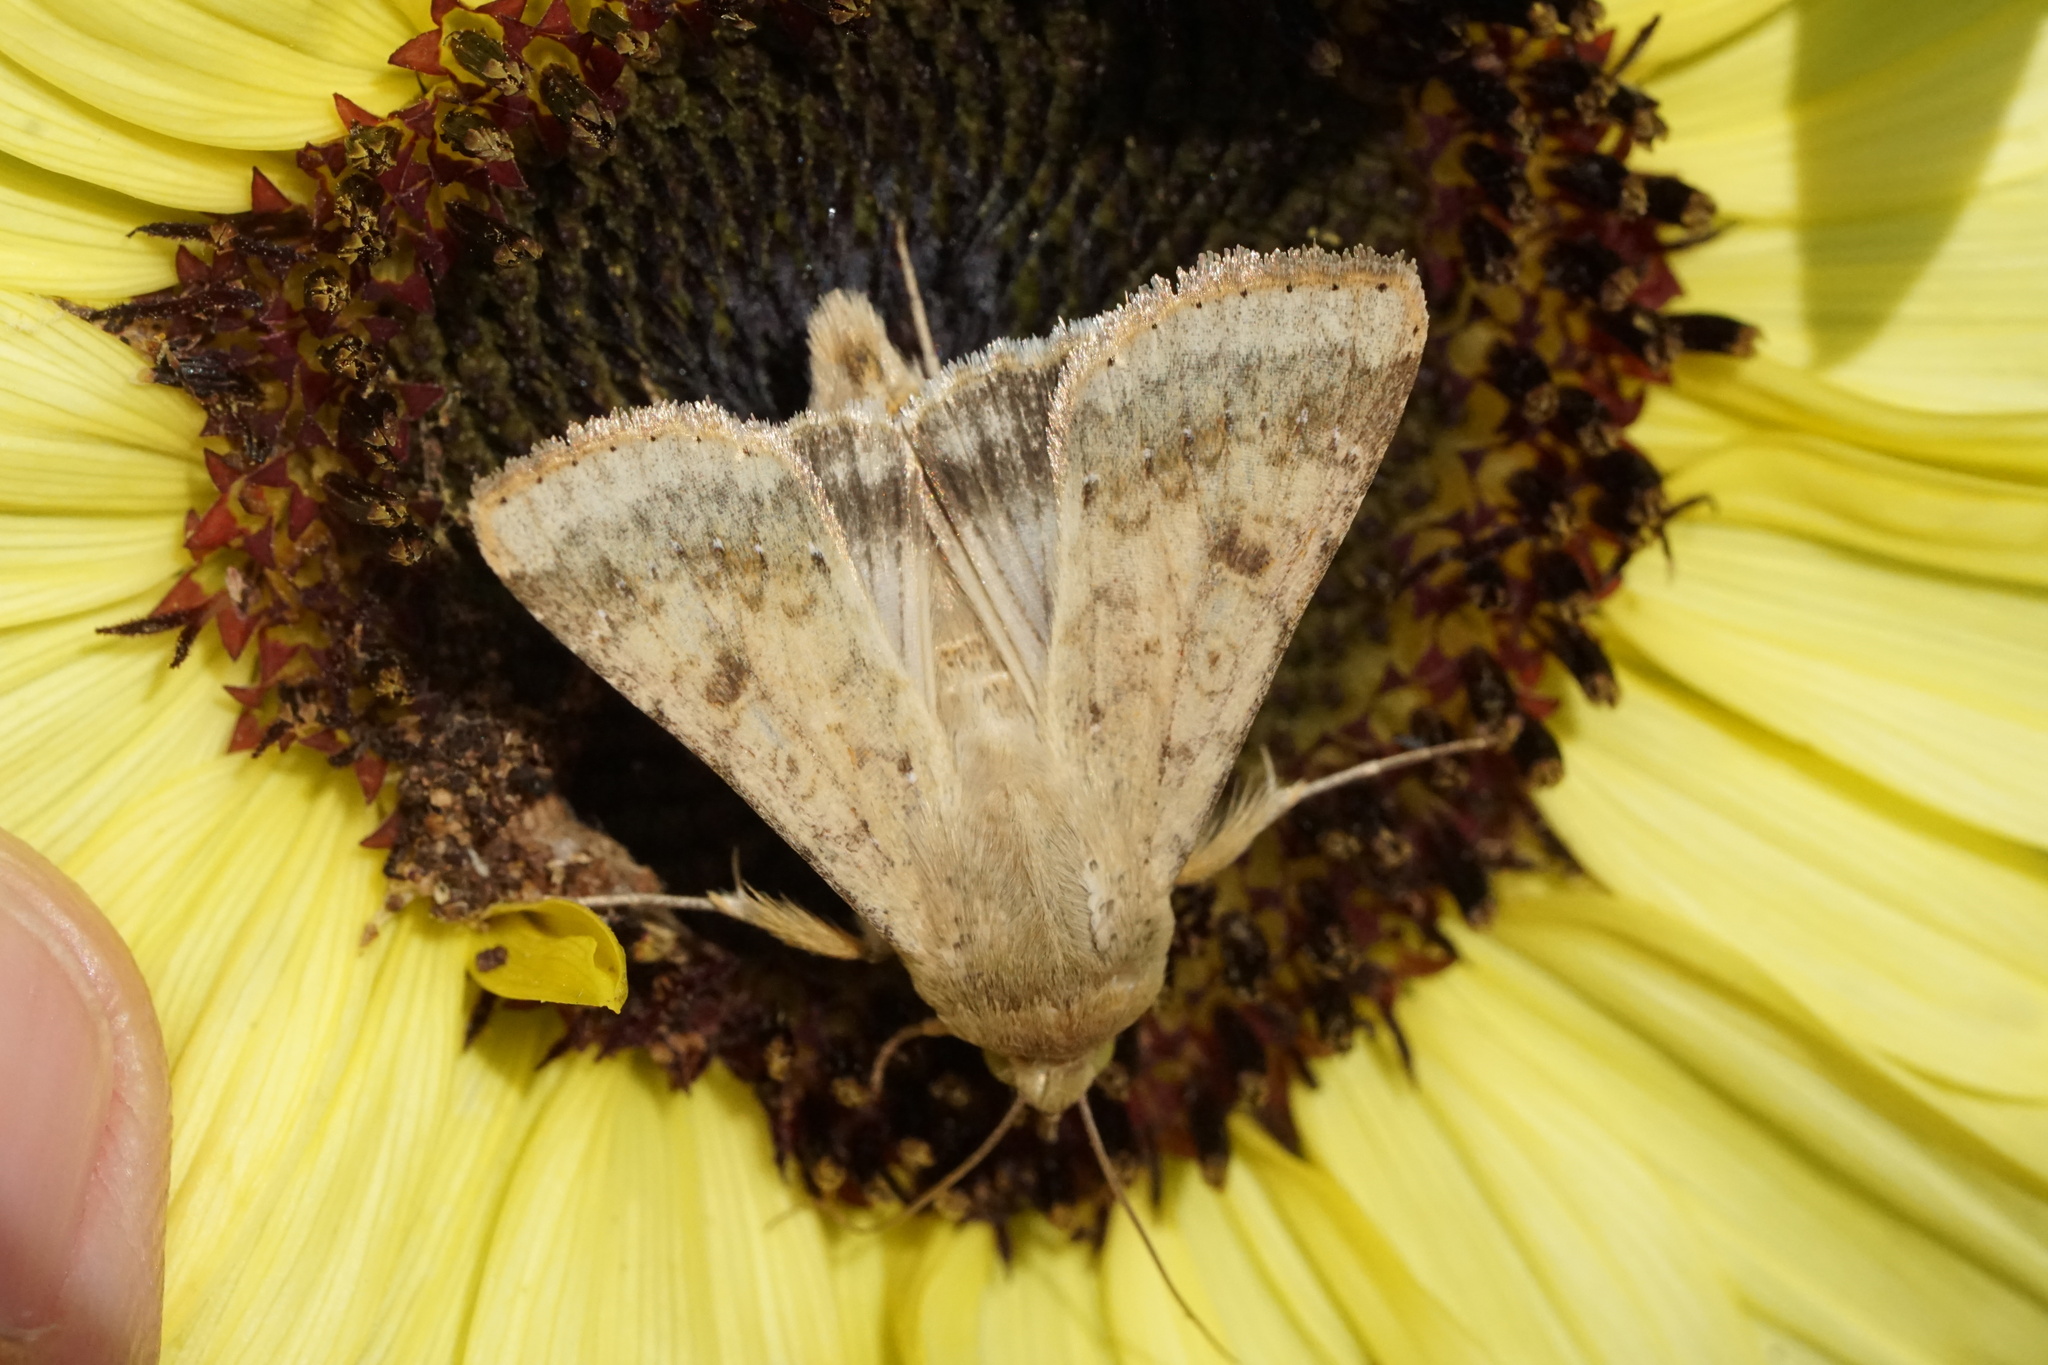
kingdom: Animalia
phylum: Arthropoda
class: Insecta
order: Lepidoptera
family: Noctuidae
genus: Helicoverpa
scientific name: Helicoverpa zea
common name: Bollworm
